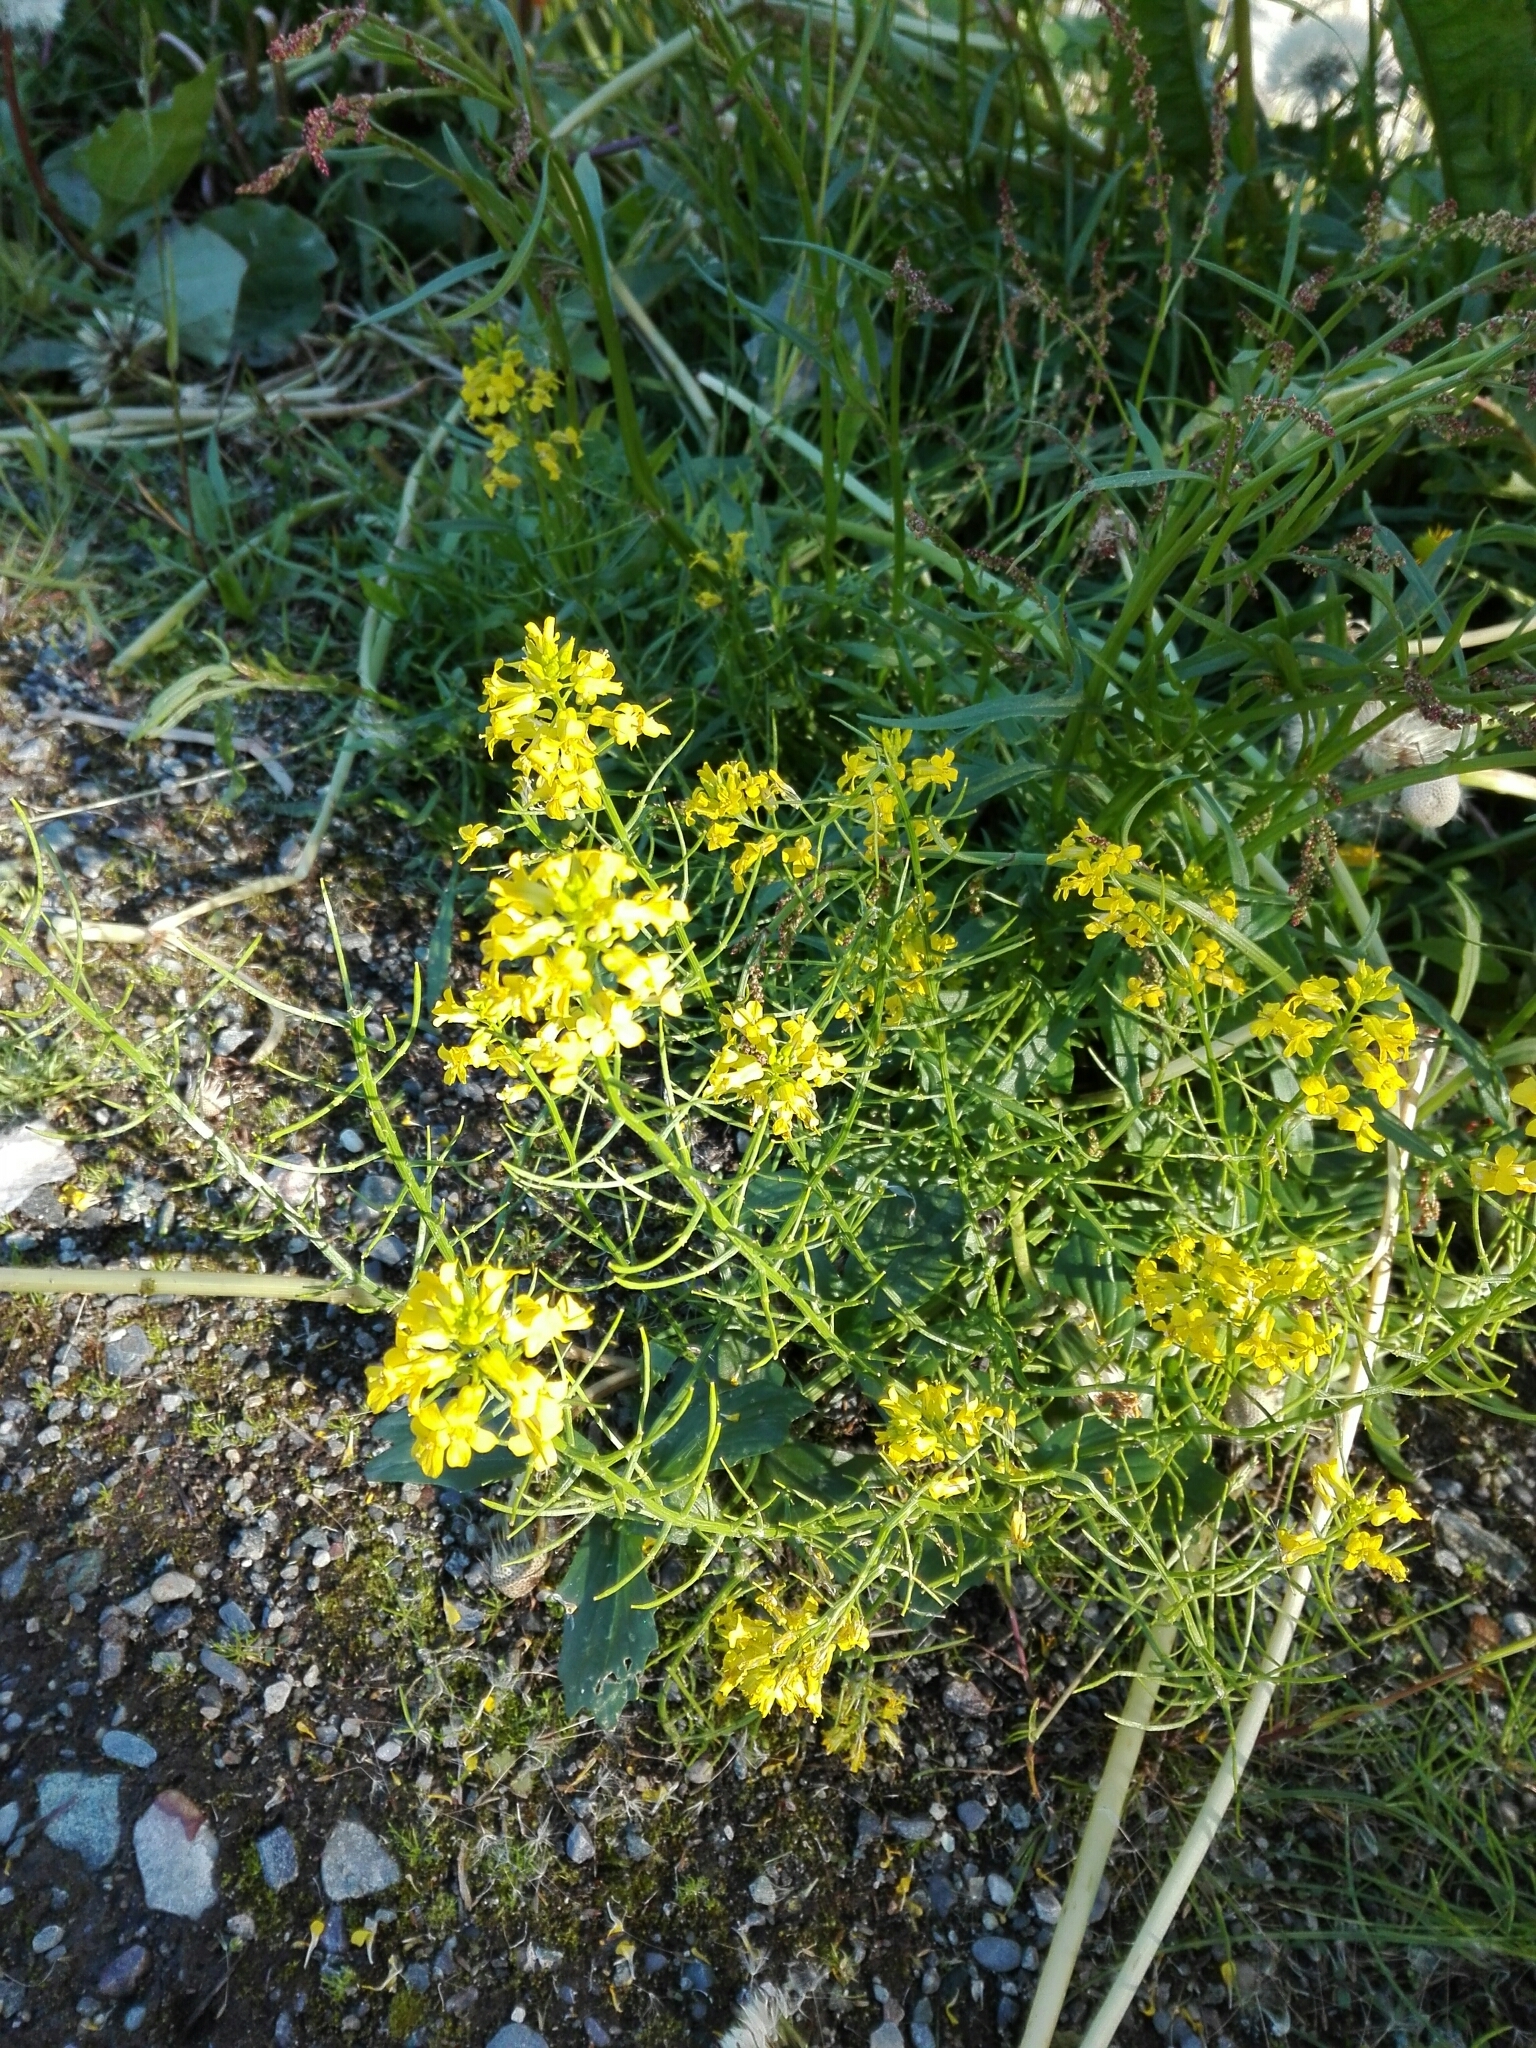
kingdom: Plantae
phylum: Tracheophyta
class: Magnoliopsida
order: Brassicales
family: Brassicaceae
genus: Barbarea
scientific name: Barbarea vulgaris
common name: Cressy-greens
